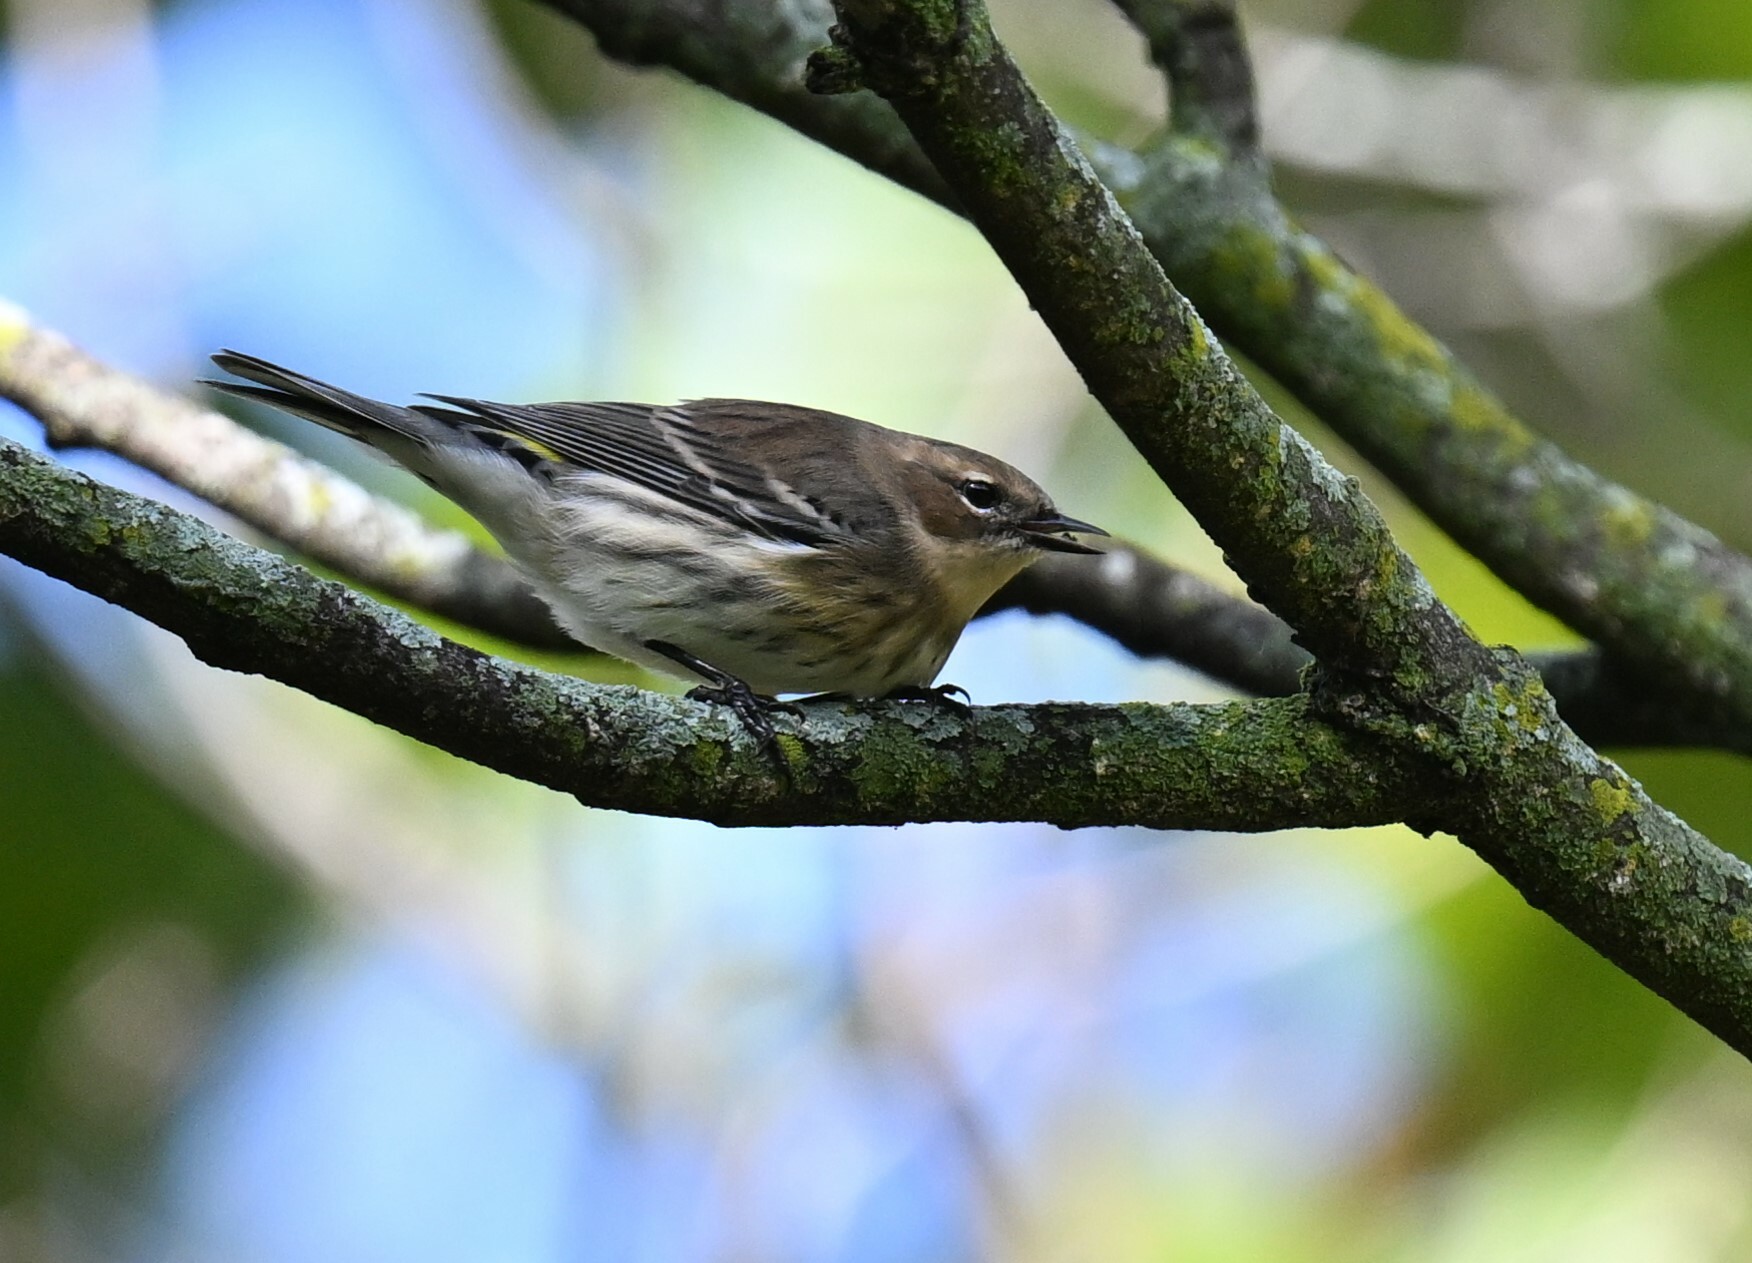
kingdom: Animalia
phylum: Chordata
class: Aves
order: Passeriformes
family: Parulidae
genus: Setophaga
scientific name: Setophaga coronata
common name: Myrtle warbler
